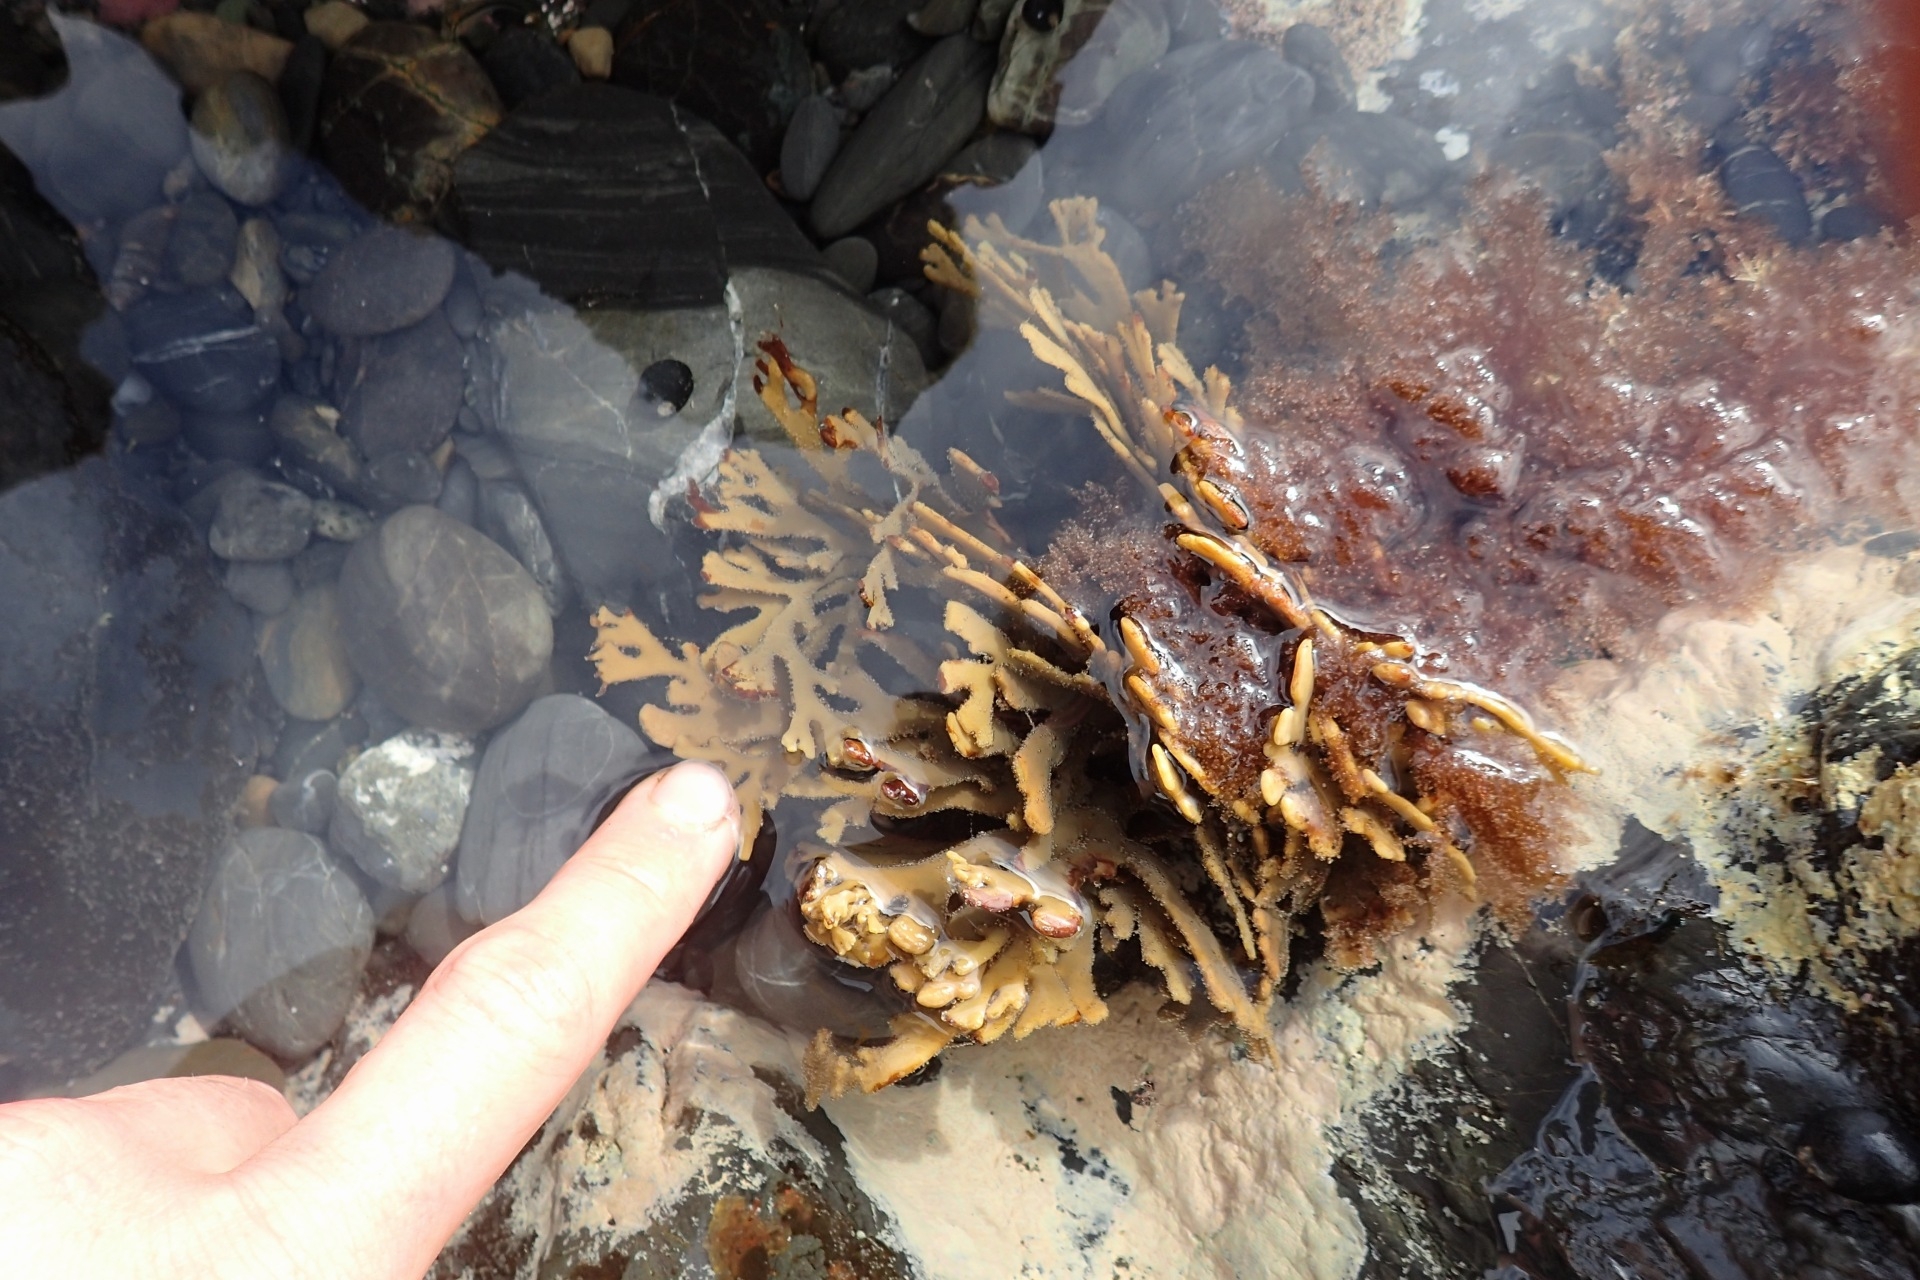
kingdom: Chromista
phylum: Ochrophyta
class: Phaeophyceae
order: Fucales
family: Xiphophoraceae
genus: Xiphophora
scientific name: Xiphophora chondrophylla
